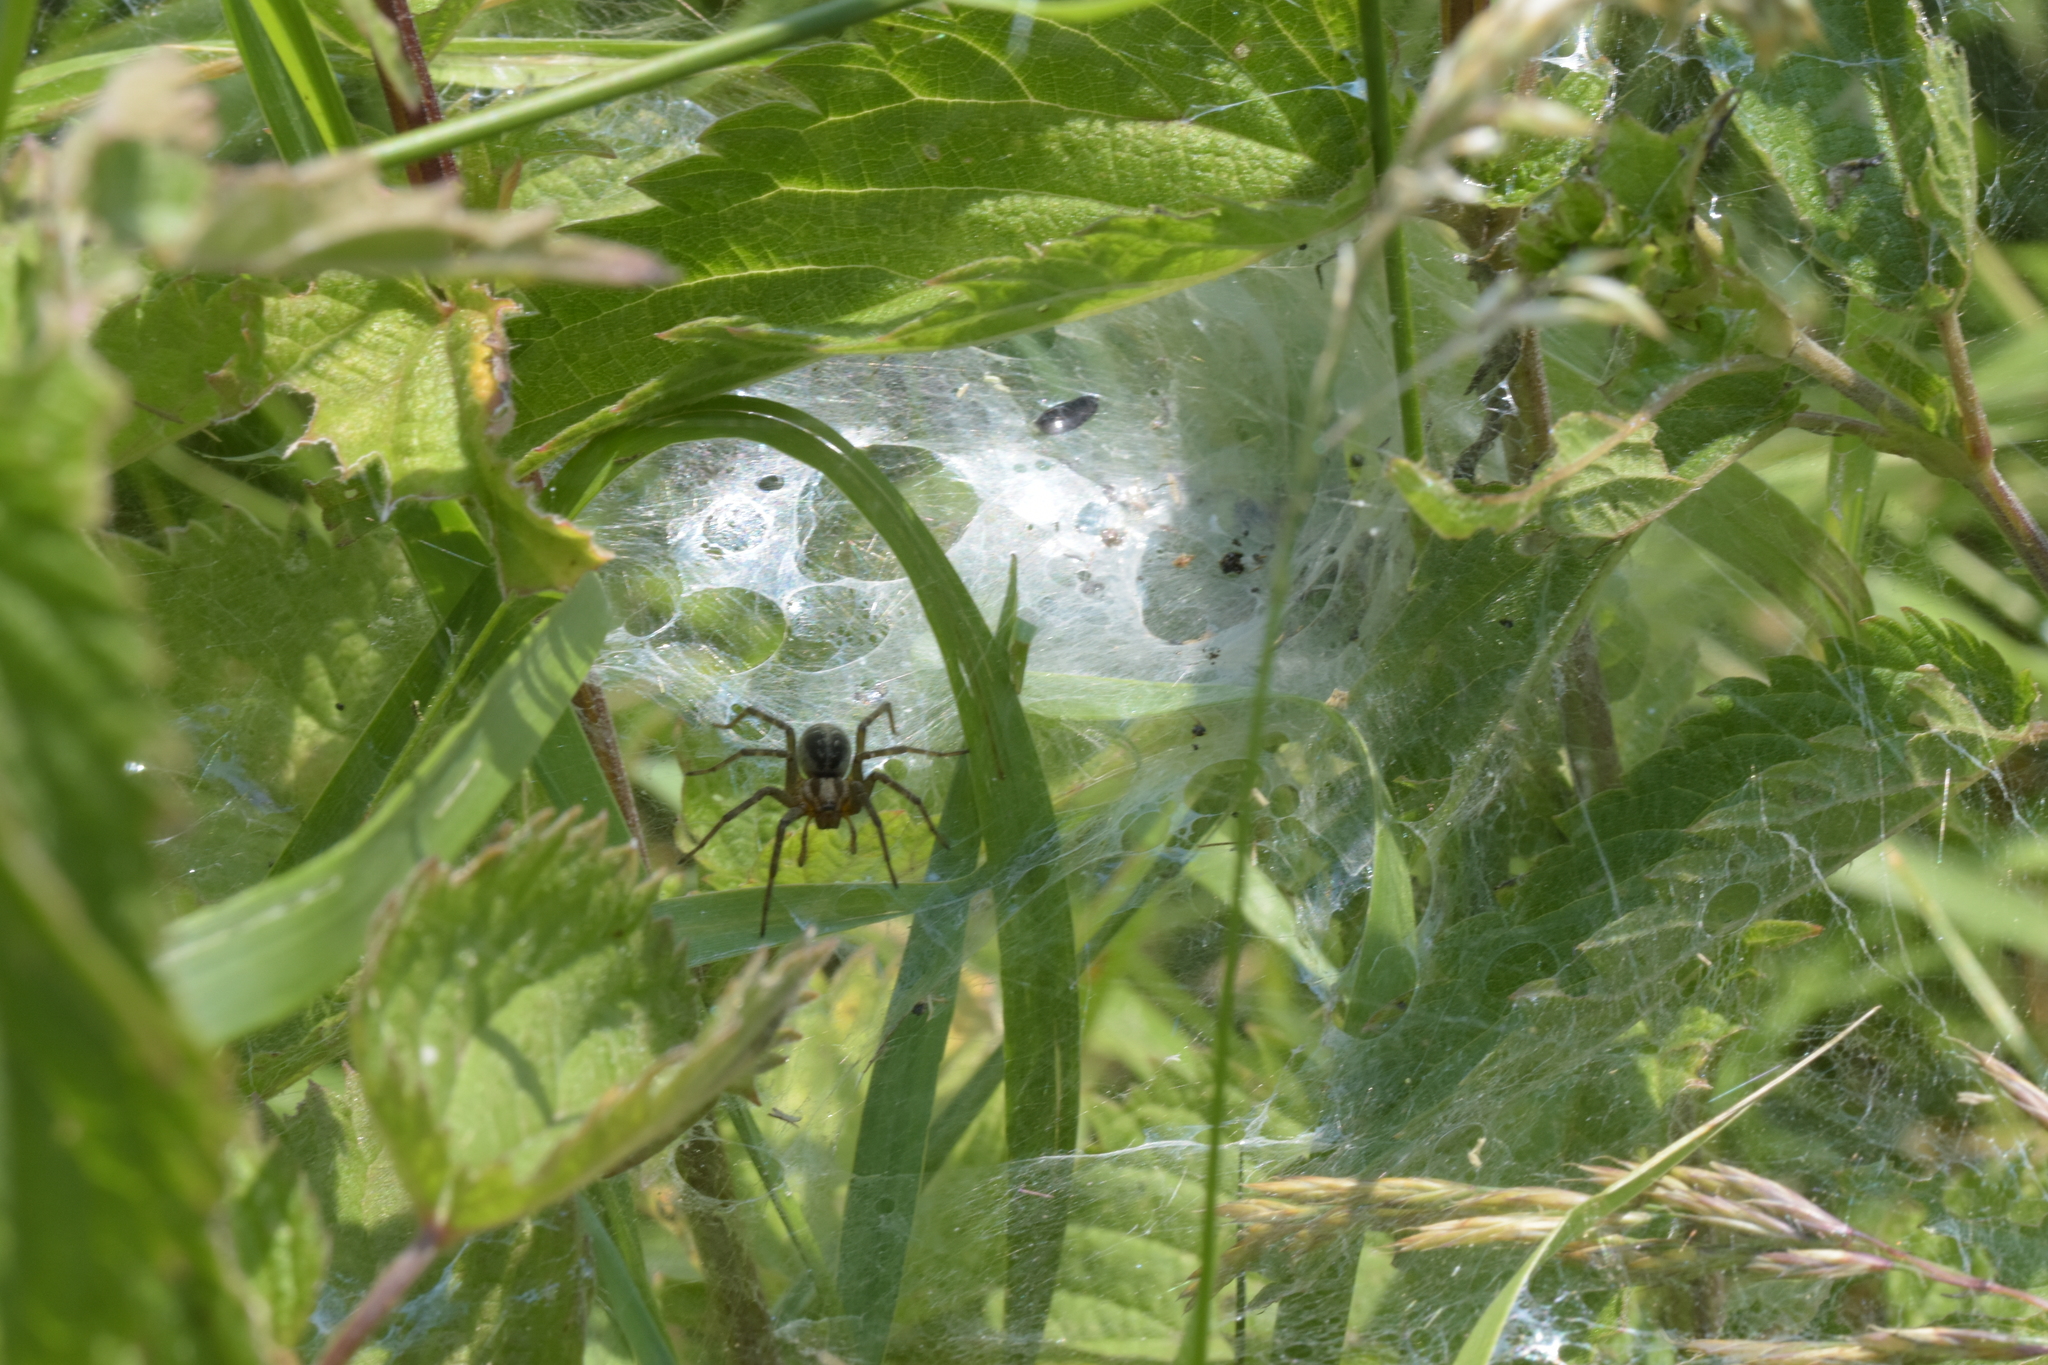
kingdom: Animalia
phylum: Arthropoda
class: Arachnida
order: Araneae
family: Agelenidae
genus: Agelena
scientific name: Agelena labyrinthica
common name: Labyrinth spider
